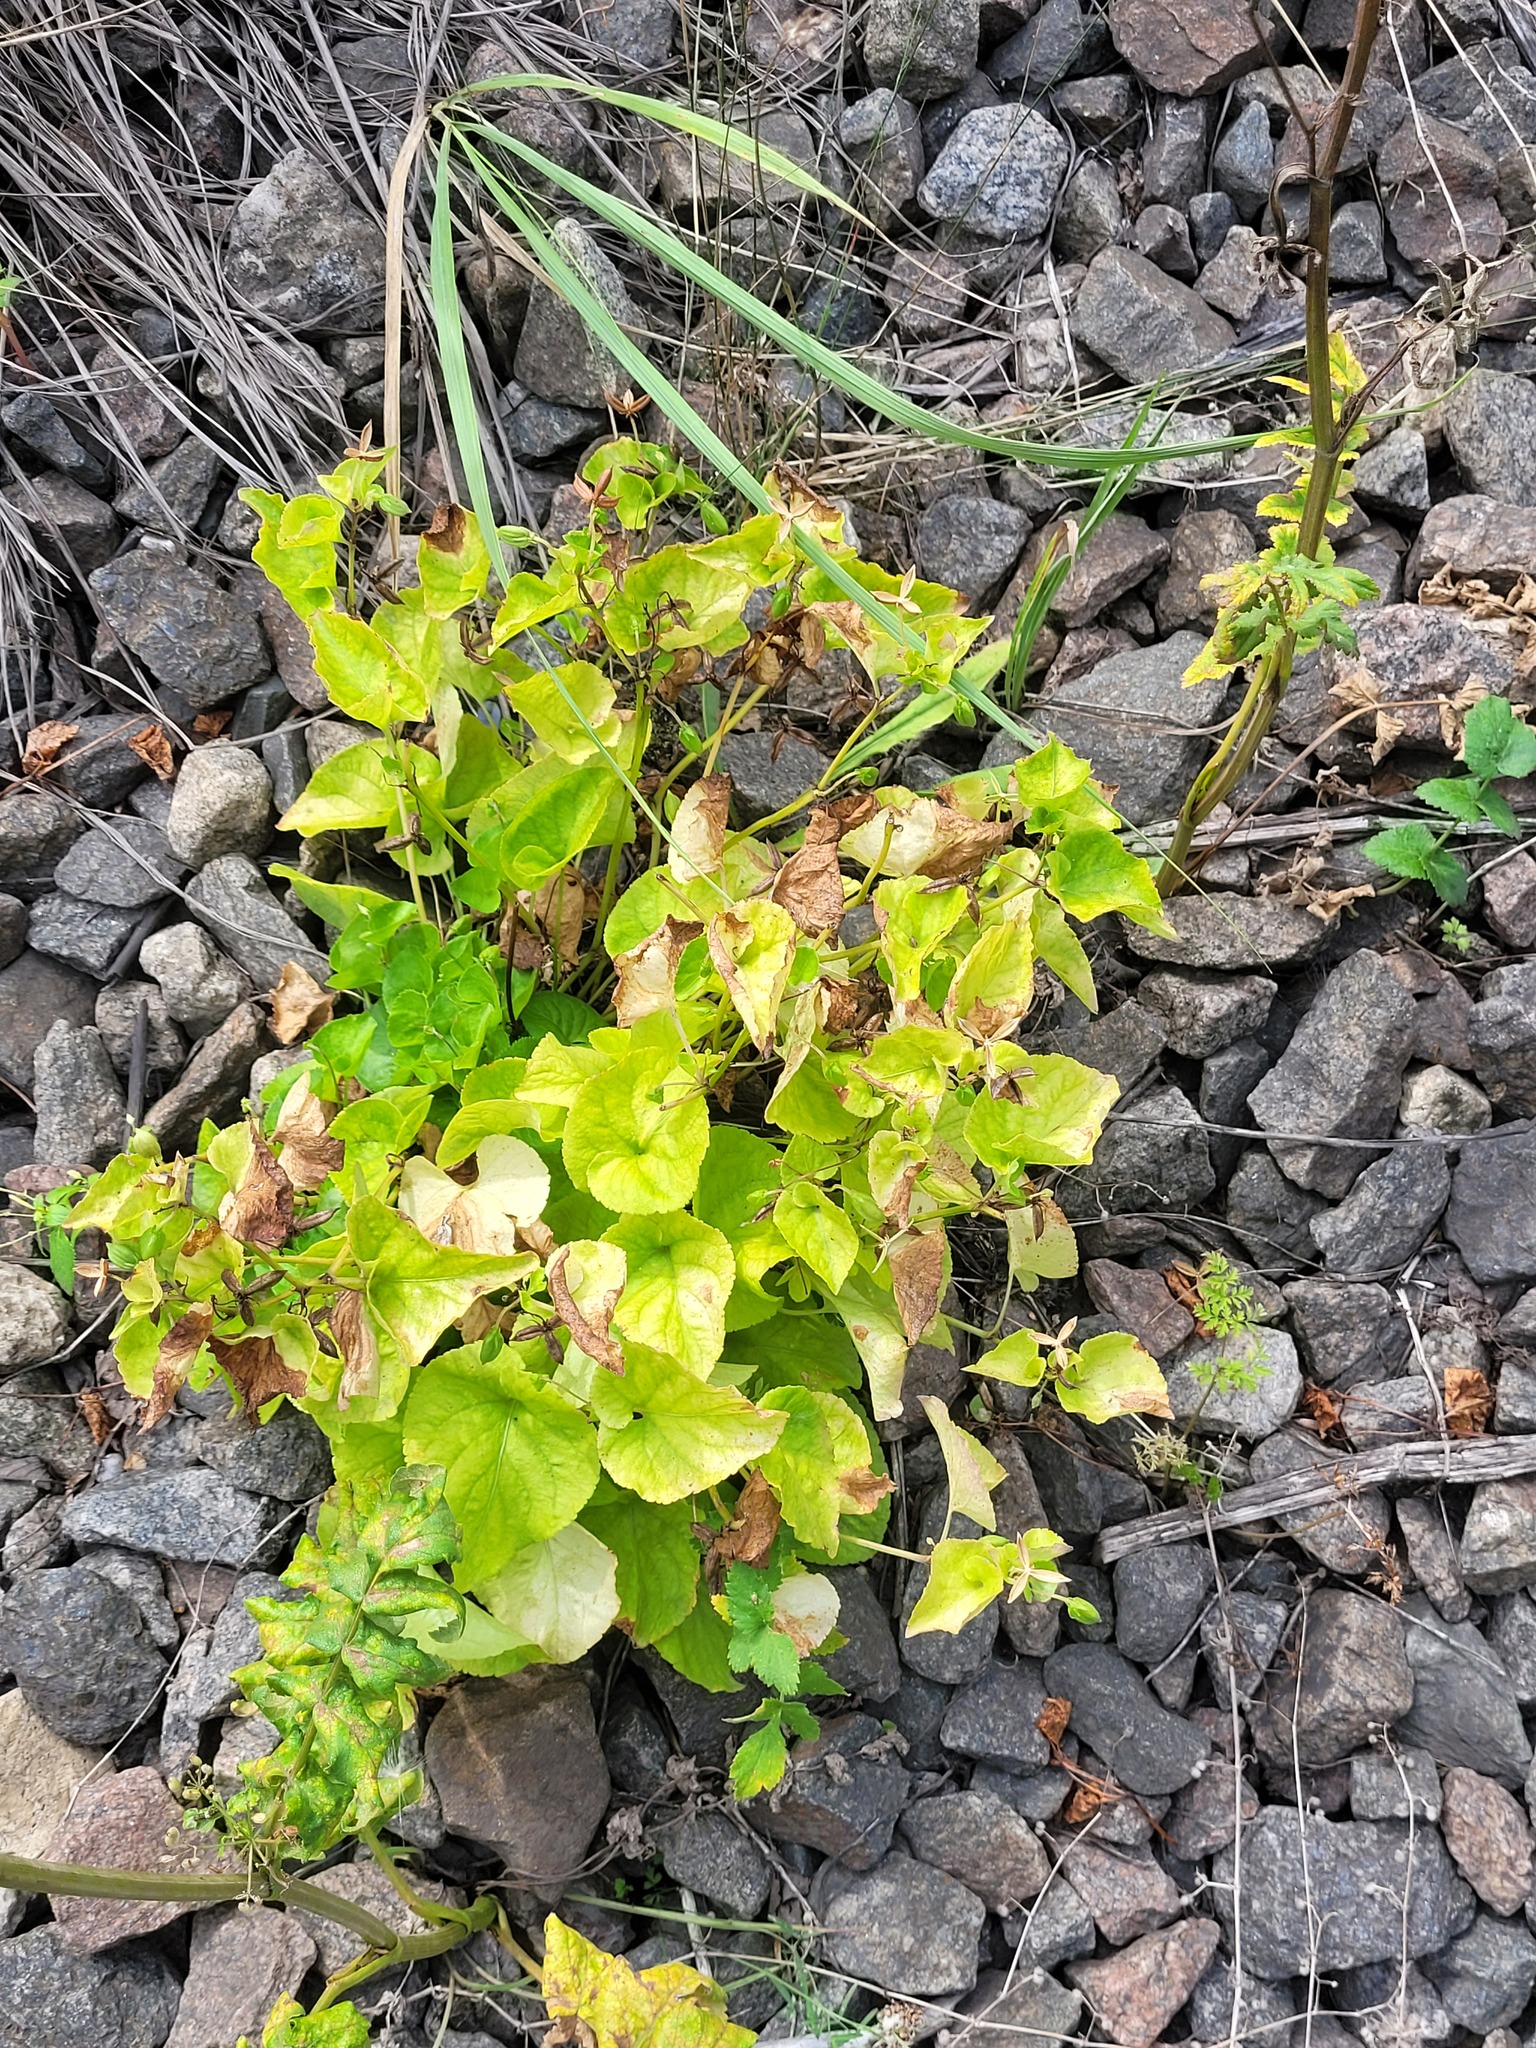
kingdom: Plantae
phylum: Tracheophyta
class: Magnoliopsida
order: Malpighiales
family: Violaceae
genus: Viola
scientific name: Viola mirabilis
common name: Wonder violet
